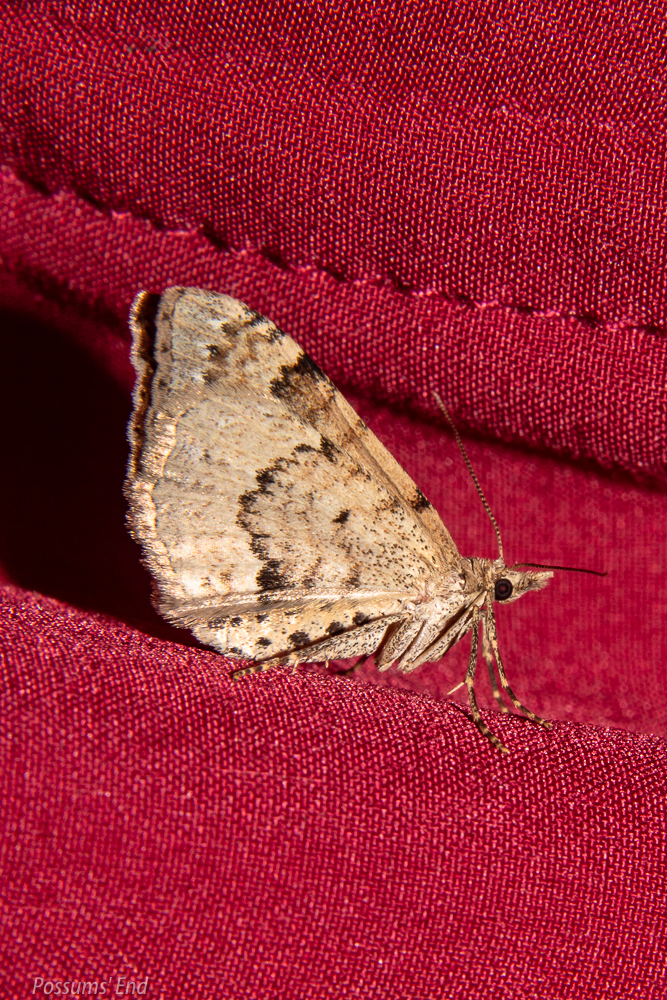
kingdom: Animalia
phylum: Arthropoda
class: Insecta
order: Lepidoptera
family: Geometridae
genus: Homodotis
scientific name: Homodotis falcata
